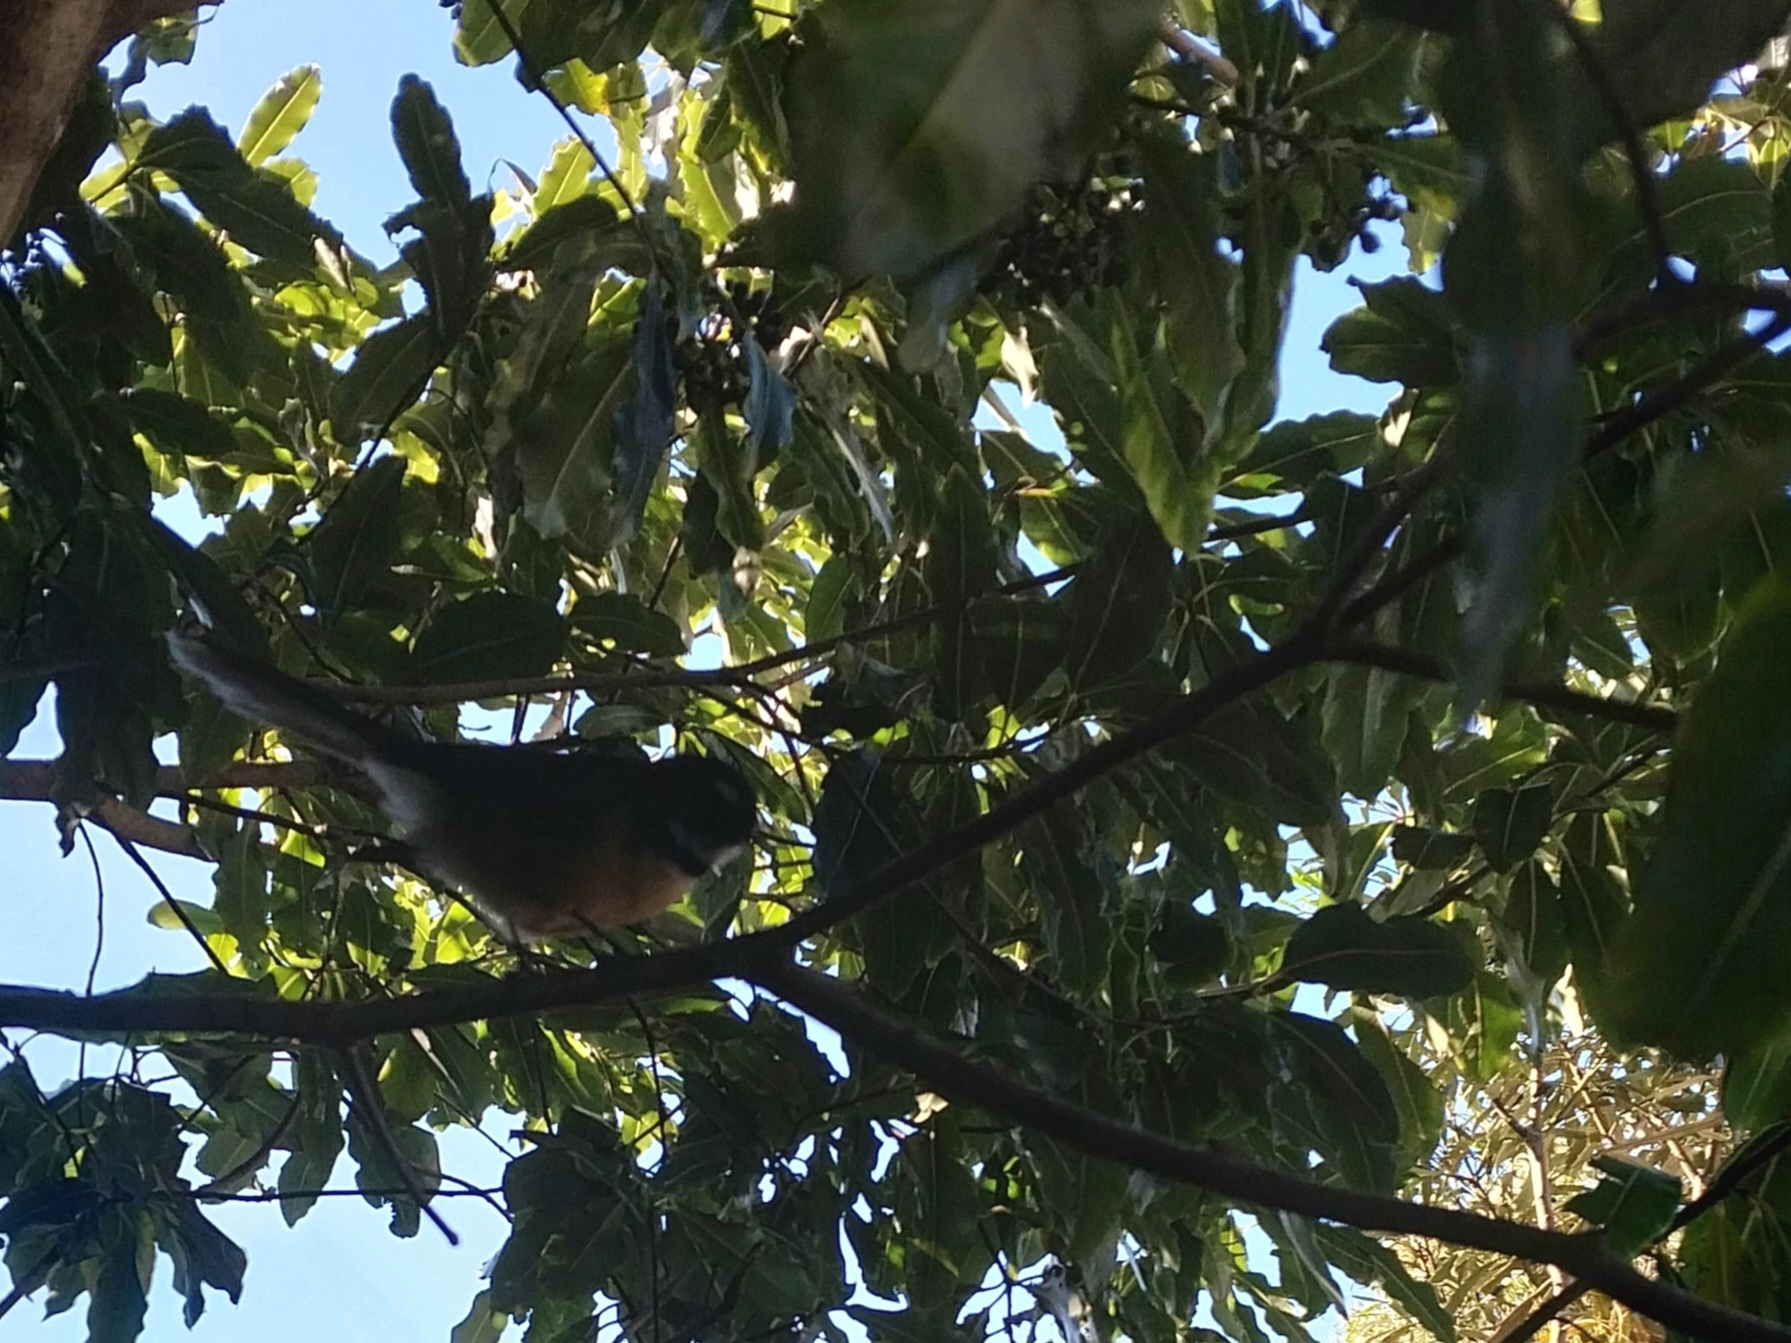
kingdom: Animalia
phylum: Chordata
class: Aves
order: Passeriformes
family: Rhipiduridae
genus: Rhipidura
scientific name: Rhipidura fuliginosa
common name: New zealand fantail
